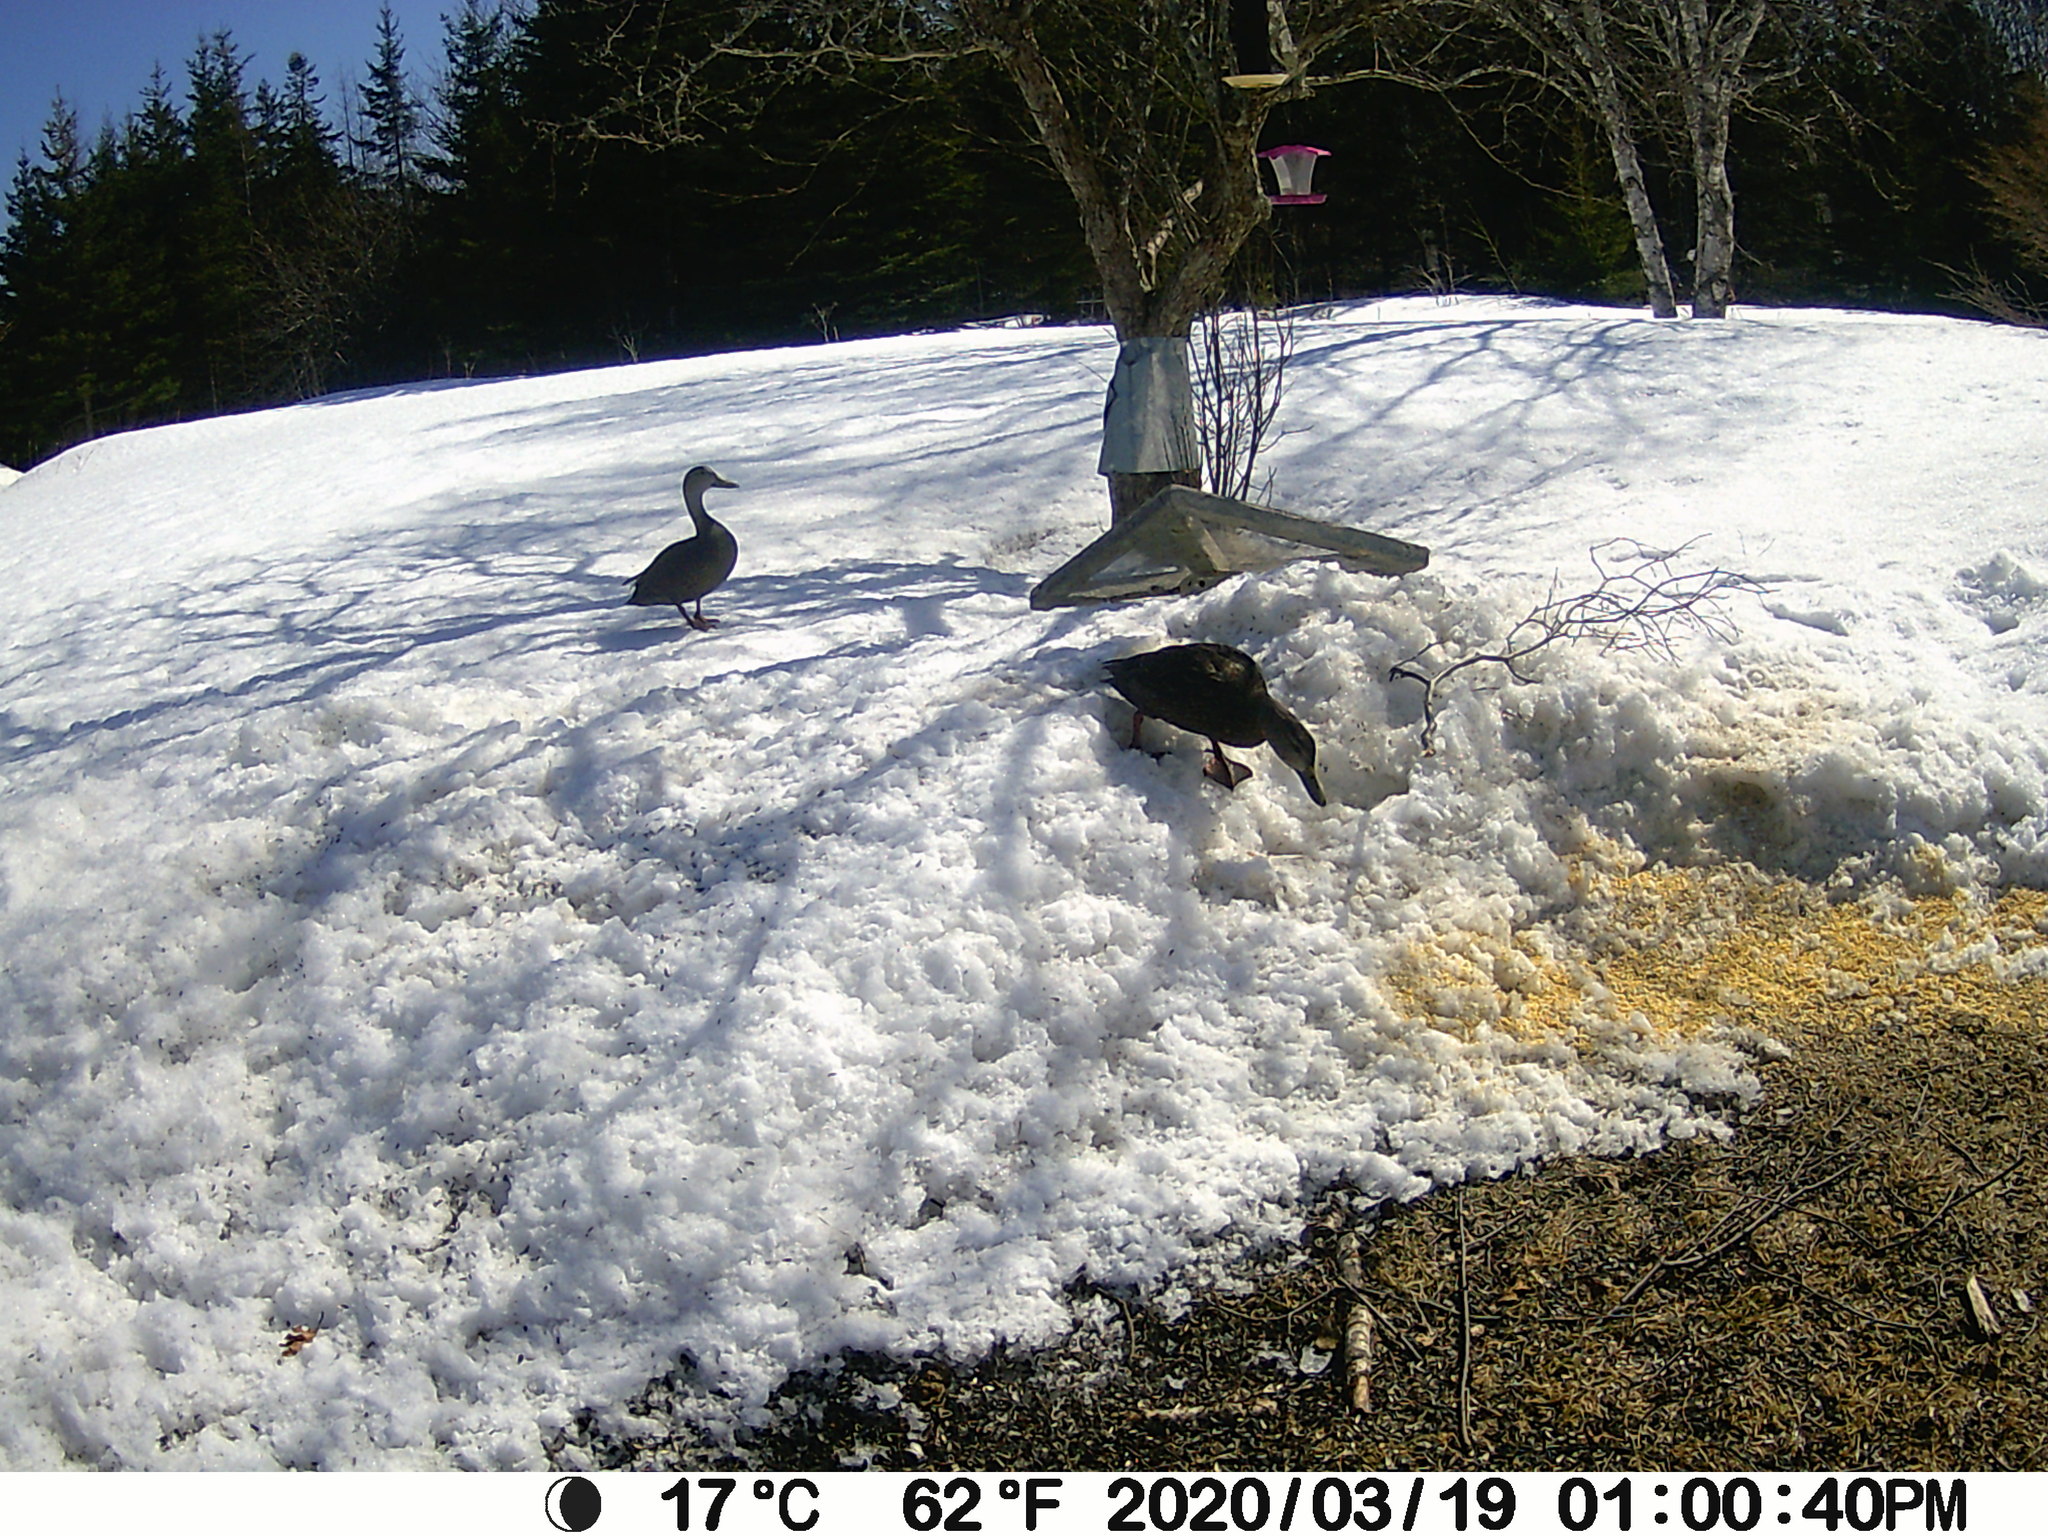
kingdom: Animalia
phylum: Chordata
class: Aves
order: Anseriformes
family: Anatidae
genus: Anas
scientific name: Anas rubripes
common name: American black duck
